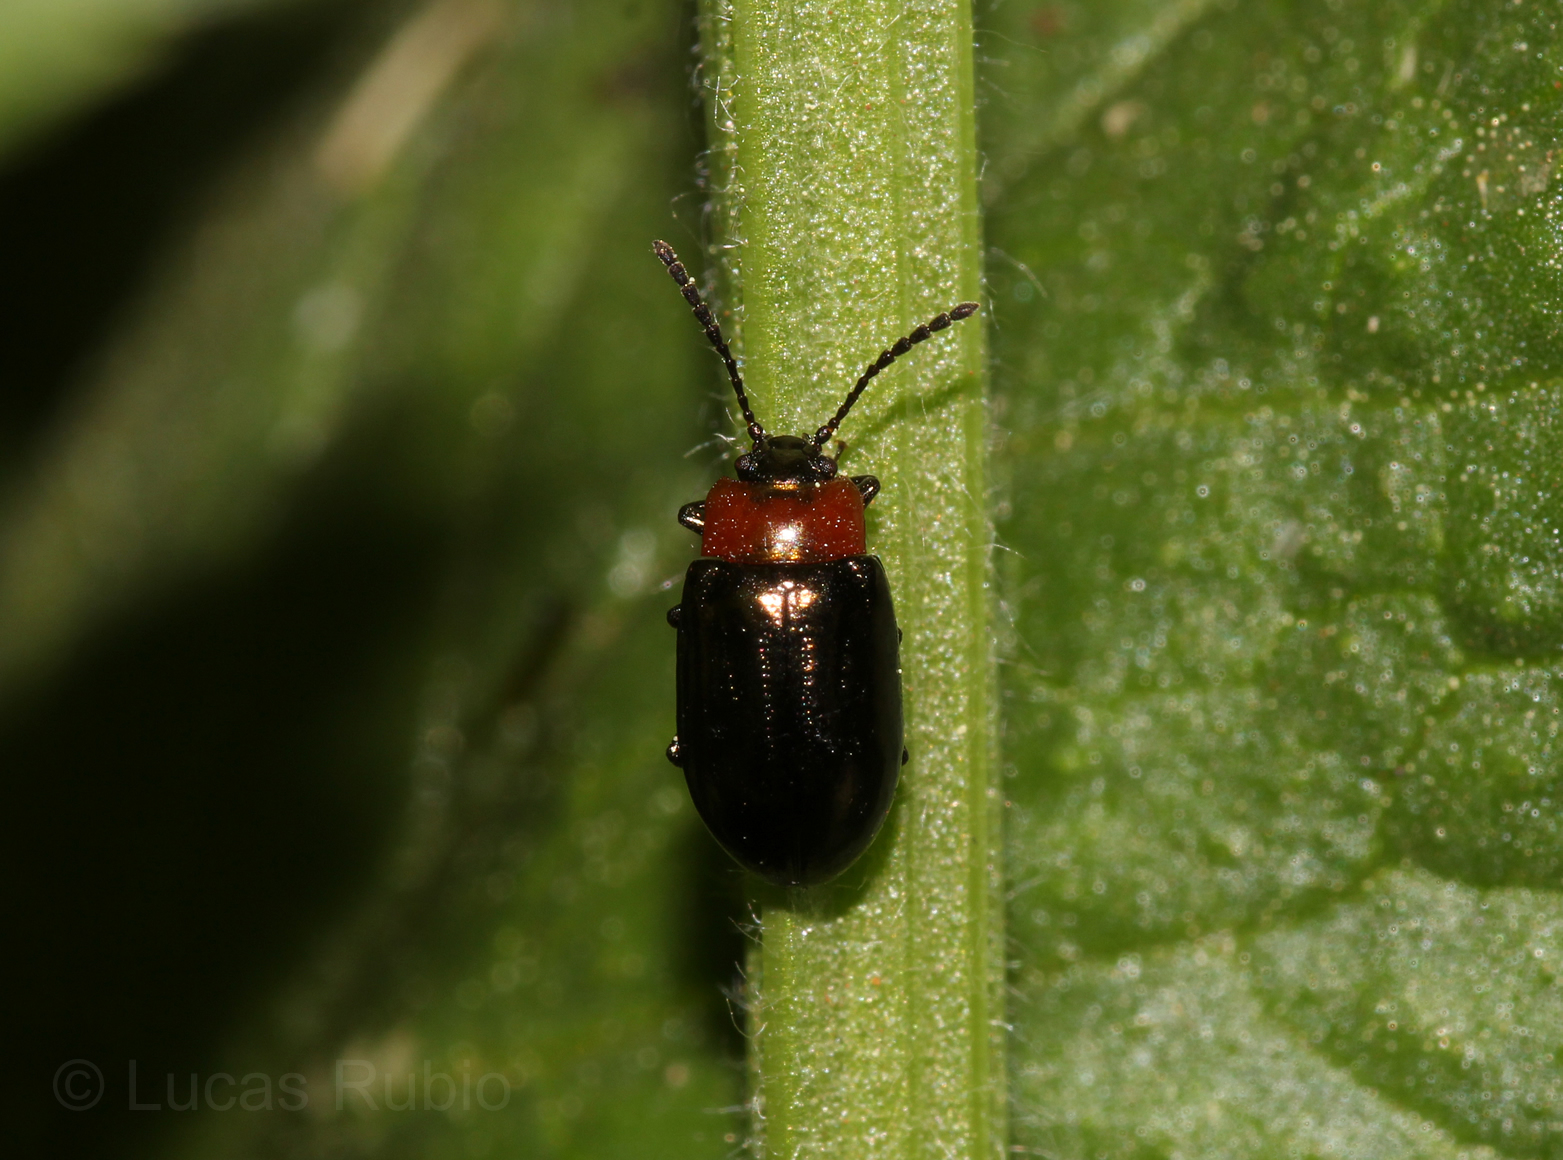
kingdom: Animalia
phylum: Arthropoda
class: Insecta
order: Coleoptera
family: Chrysomelidae
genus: Microtheca
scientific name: Microtheca
